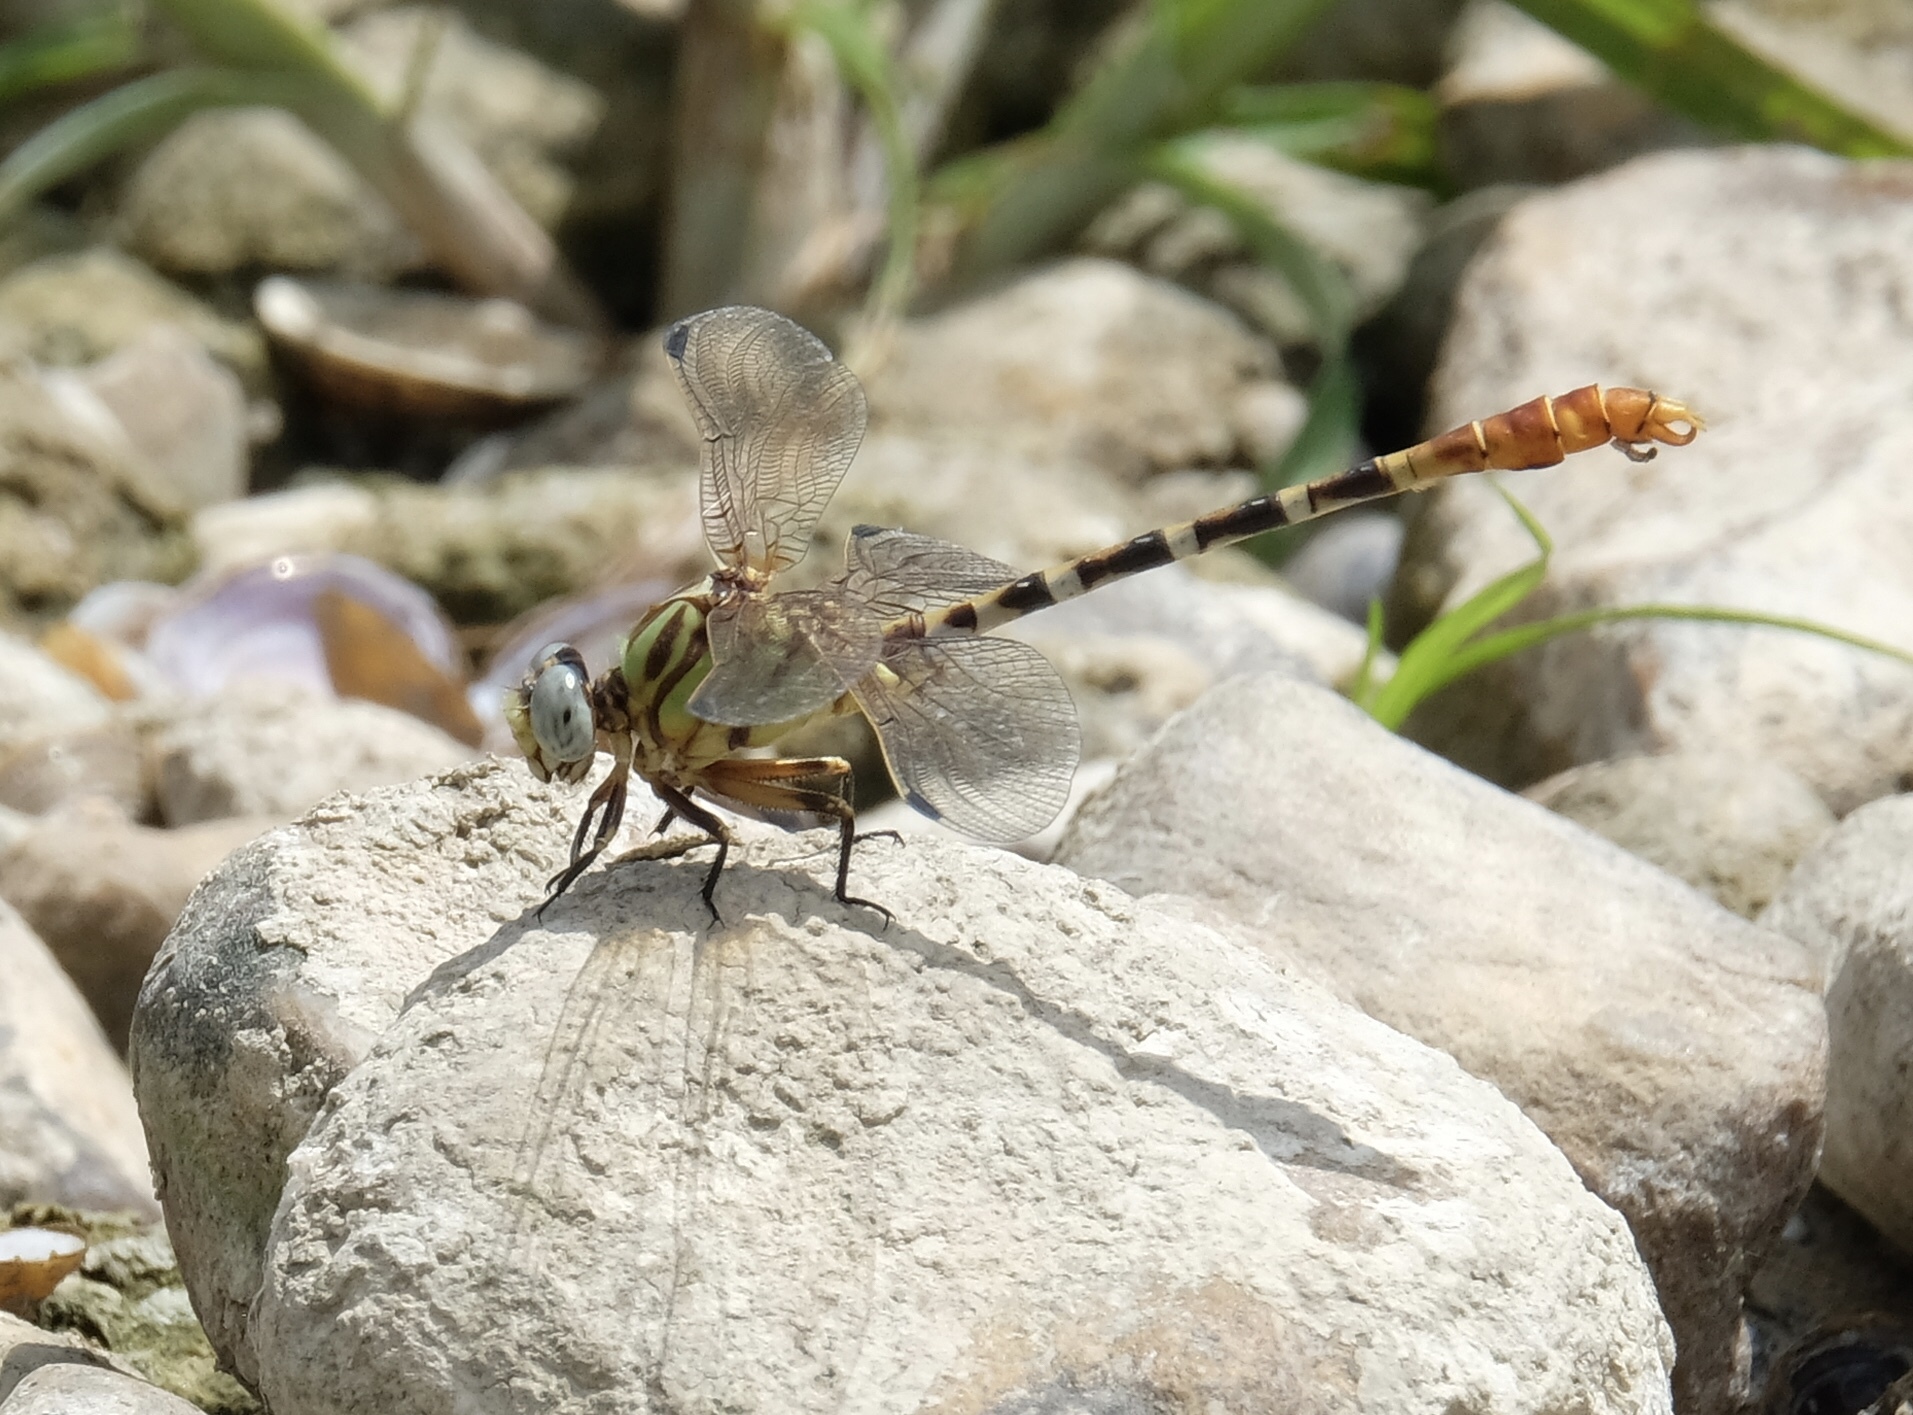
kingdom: Animalia
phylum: Arthropoda
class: Insecta
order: Odonata
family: Gomphidae
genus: Erpetogomphus
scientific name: Erpetogomphus designatus
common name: Eastern ringtail
